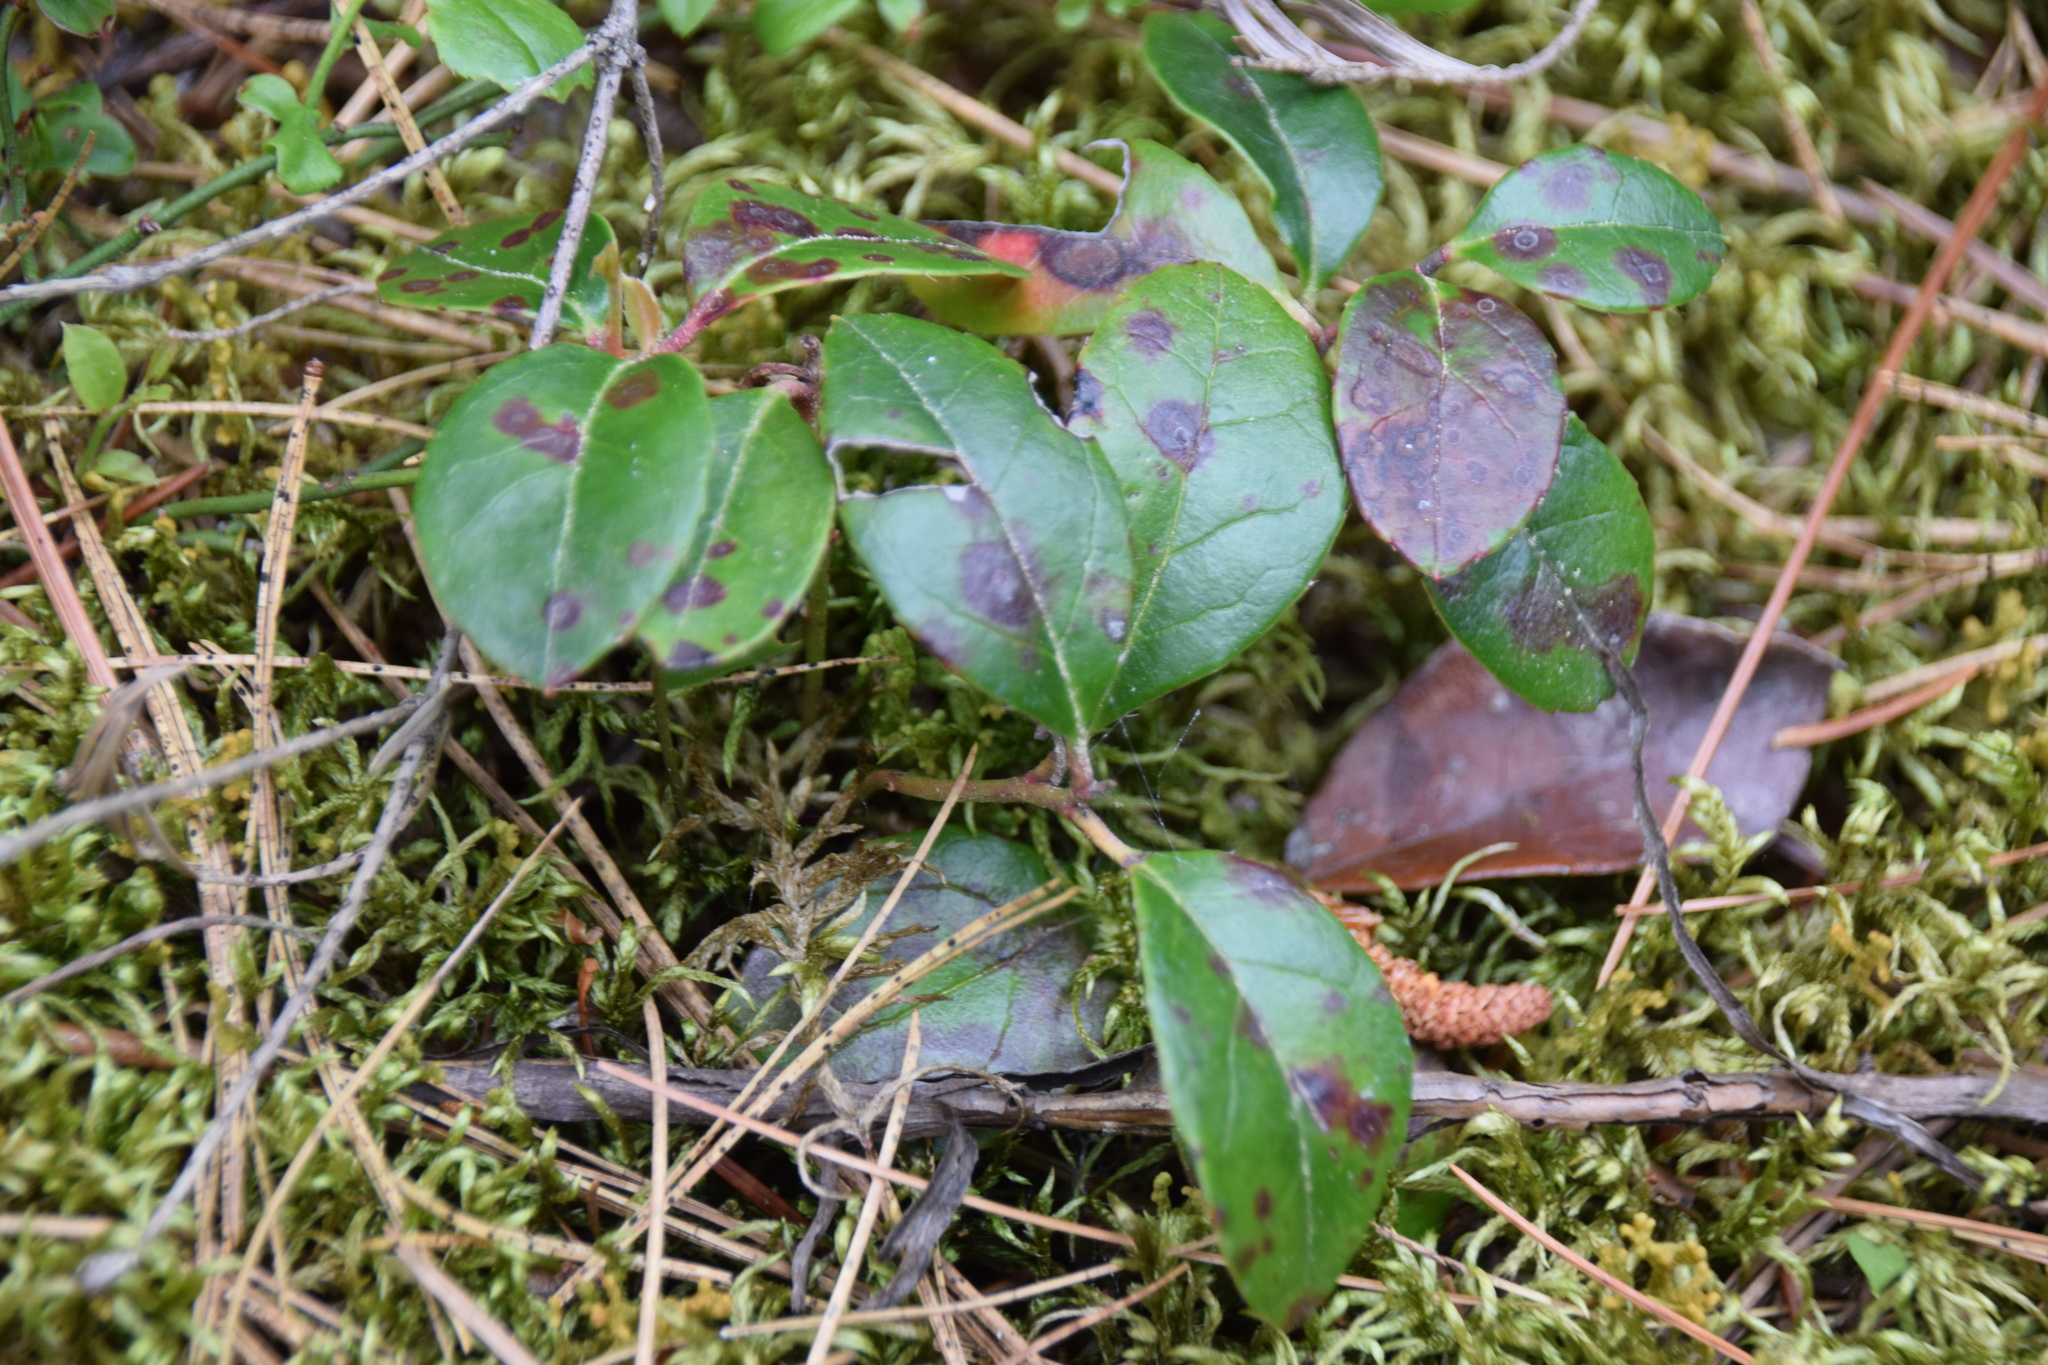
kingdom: Plantae
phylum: Tracheophyta
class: Magnoliopsida
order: Ericales
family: Ericaceae
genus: Gaultheria
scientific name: Gaultheria procumbens
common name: Checkerberry
